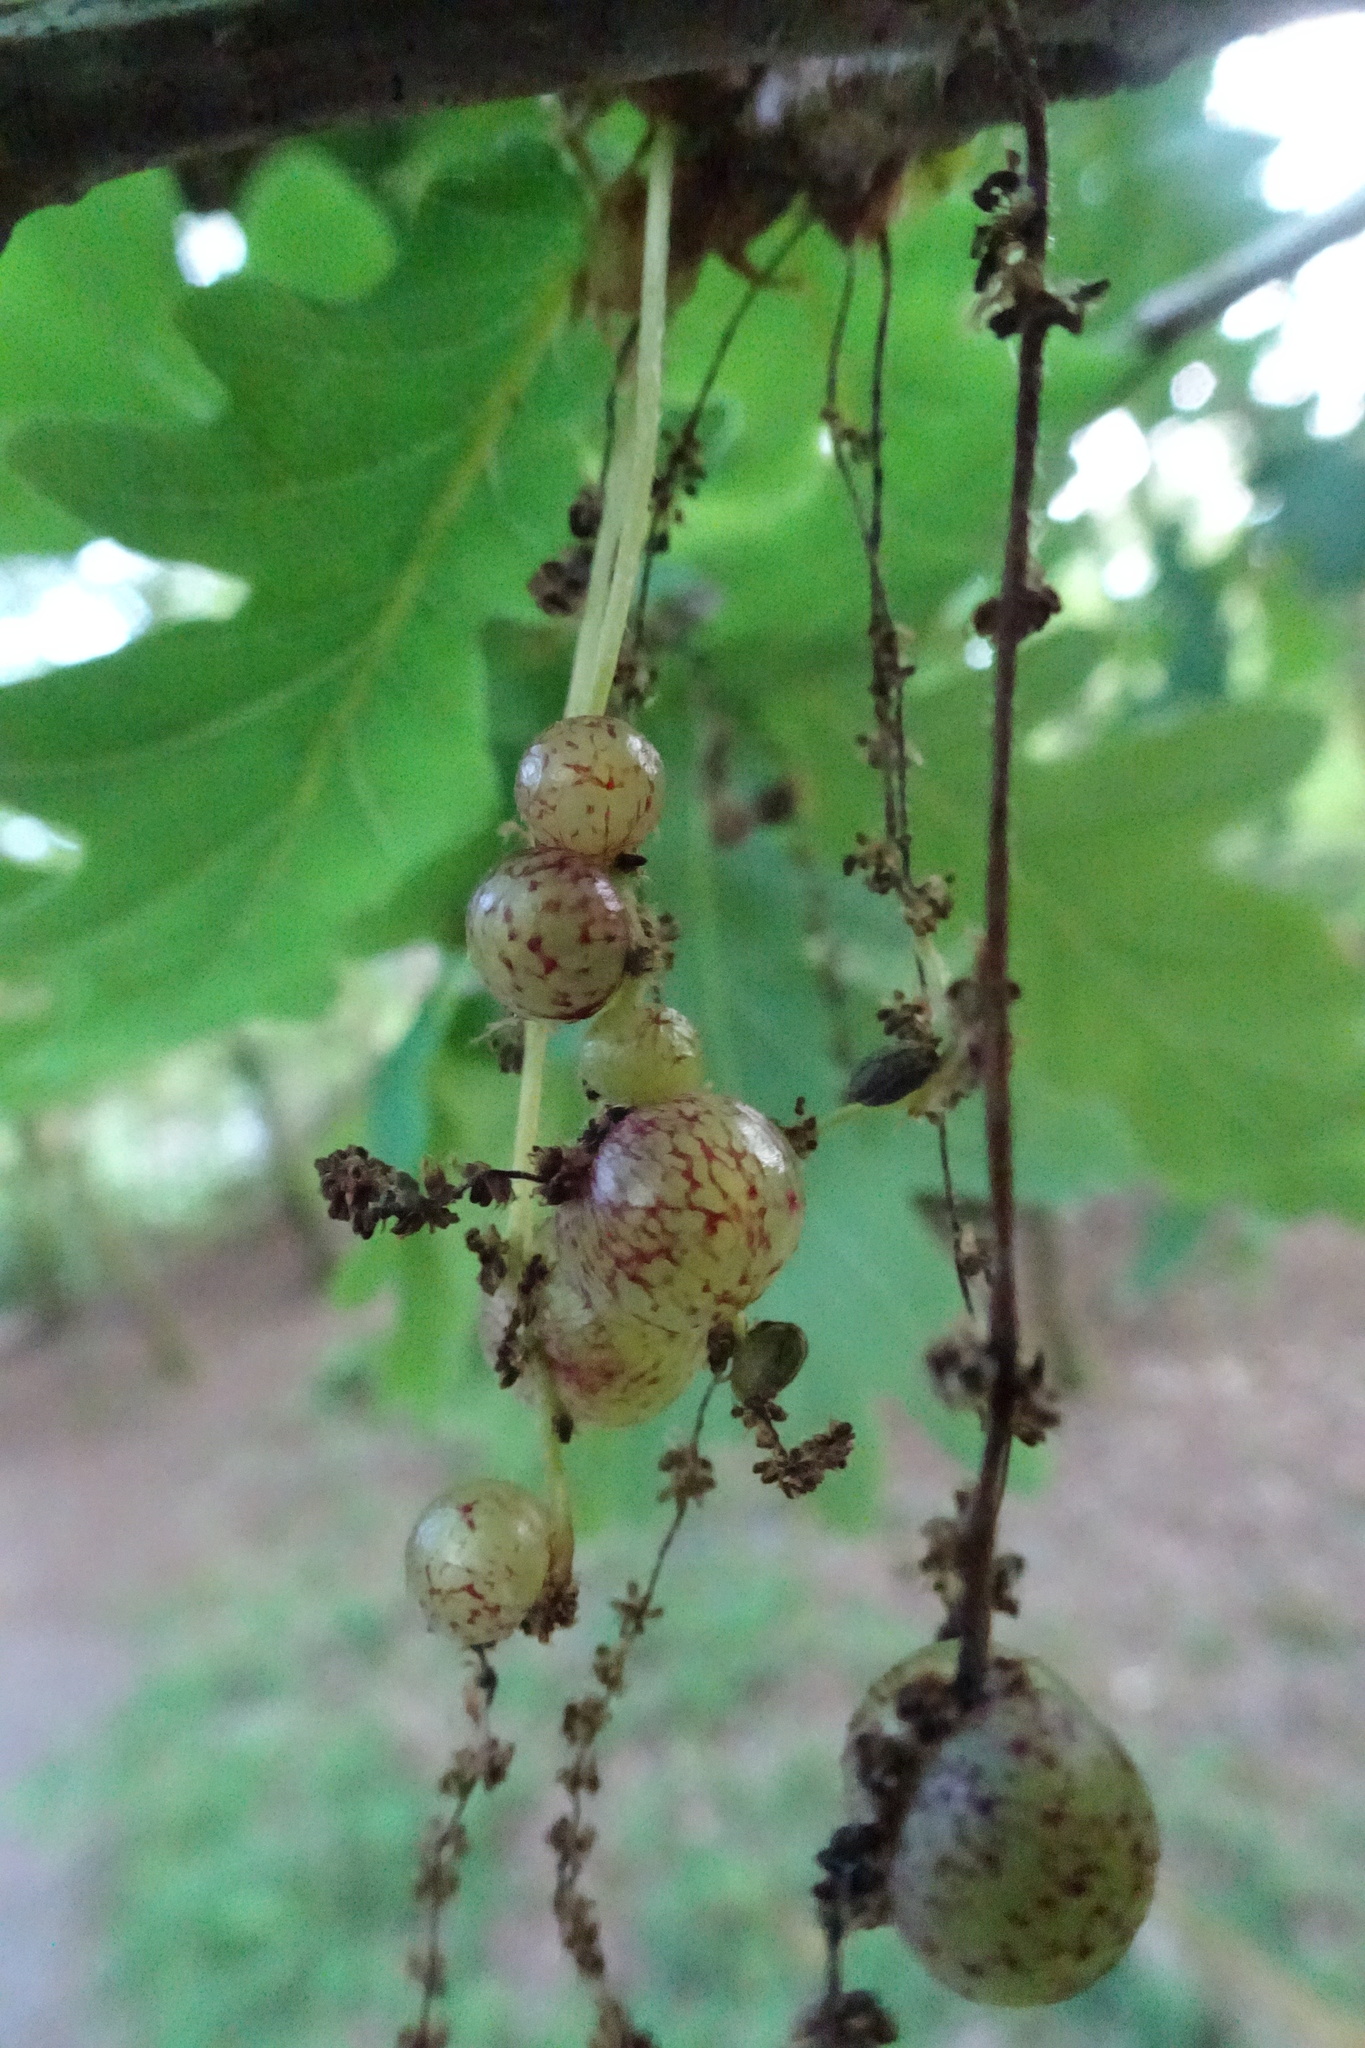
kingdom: Animalia
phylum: Arthropoda
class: Insecta
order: Hymenoptera
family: Cynipidae
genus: Neuroterus
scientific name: Neuroterus quercusbaccarum
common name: Common spangle gall
